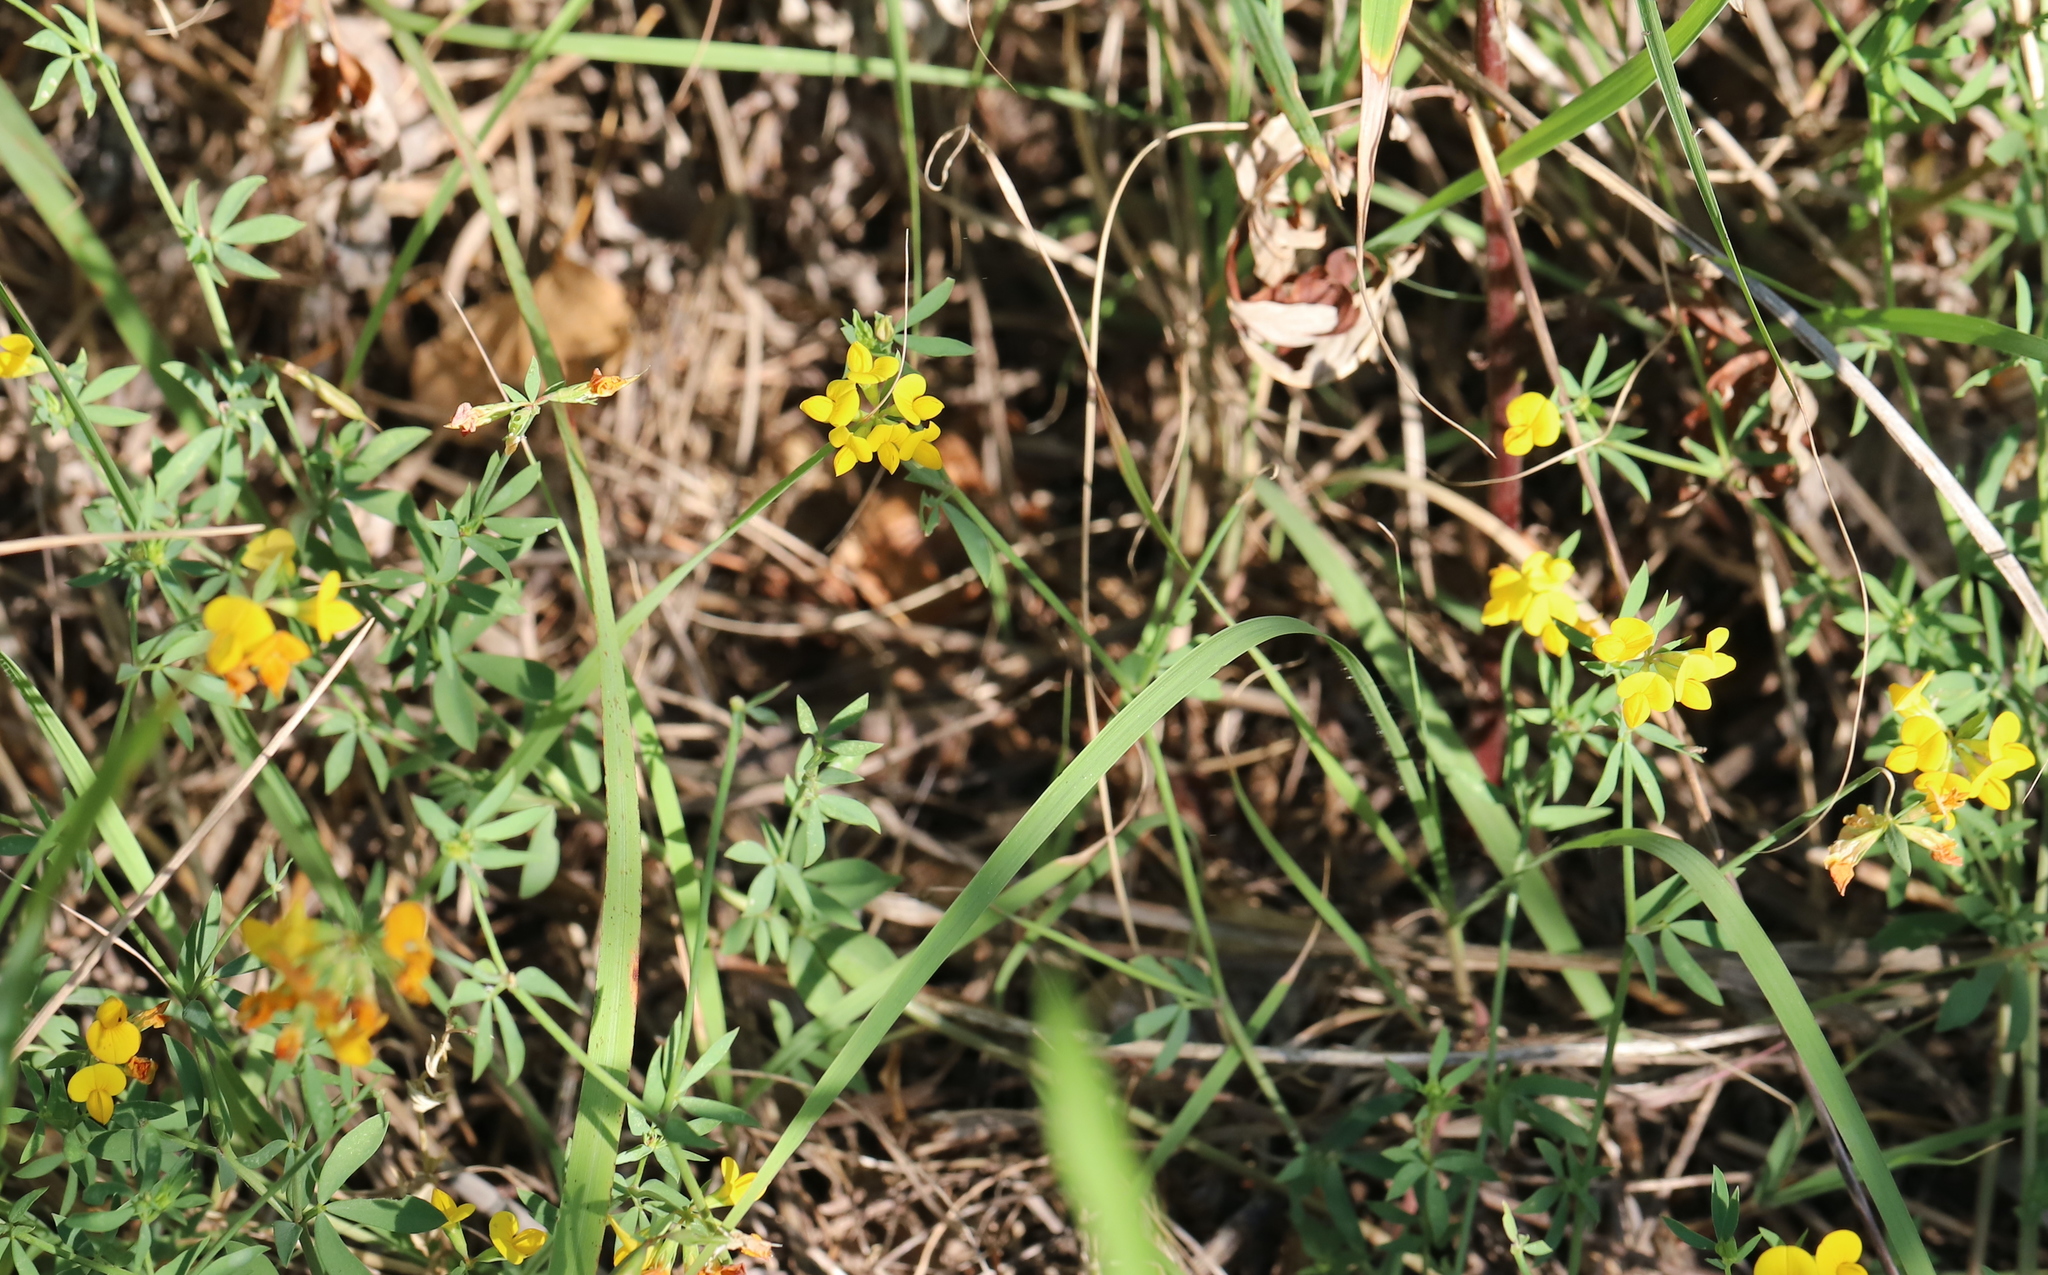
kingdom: Plantae
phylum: Tracheophyta
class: Magnoliopsida
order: Fabales
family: Fabaceae
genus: Lotus
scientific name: Lotus tenuis
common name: Narrow-leaved bird's-foot-trefoil
